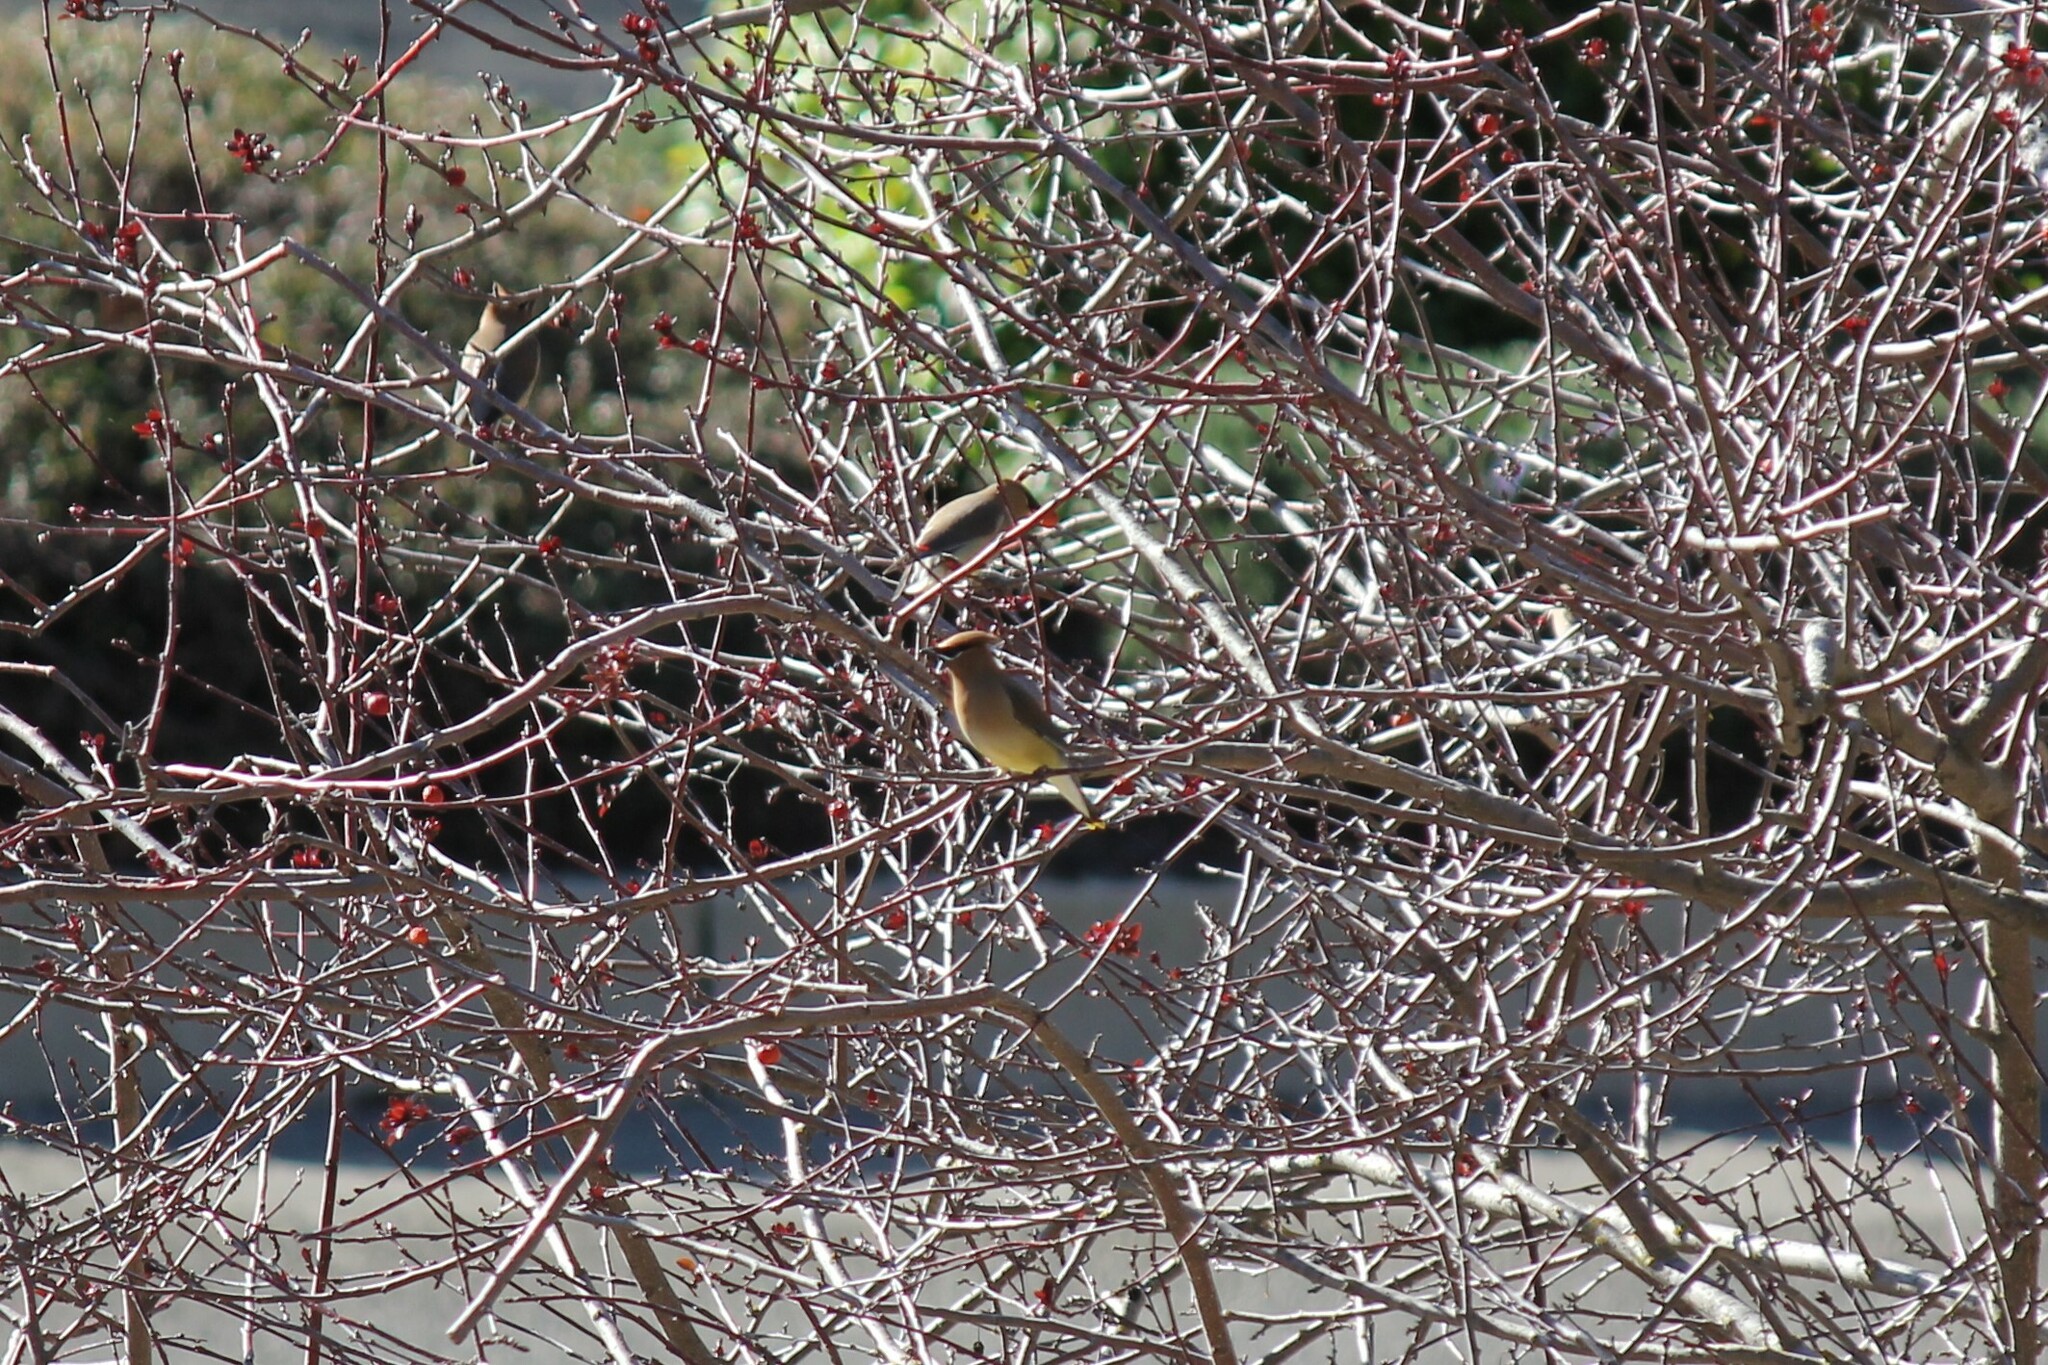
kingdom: Animalia
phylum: Chordata
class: Aves
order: Passeriformes
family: Bombycillidae
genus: Bombycilla
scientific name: Bombycilla cedrorum
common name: Cedar waxwing
